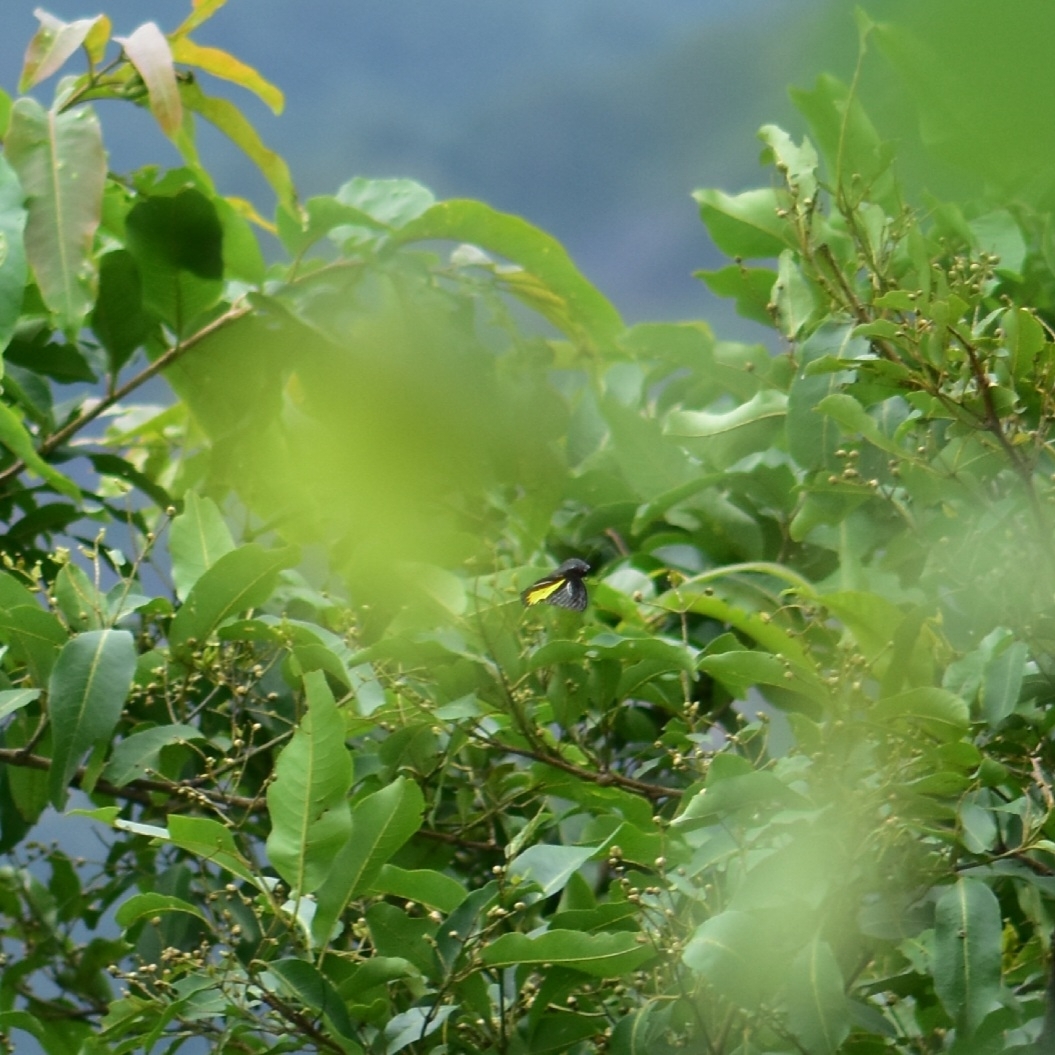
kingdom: Animalia
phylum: Arthropoda
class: Insecta
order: Lepidoptera
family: Papilionidae
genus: Troides
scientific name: Troides minos
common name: Malabar birdwing
